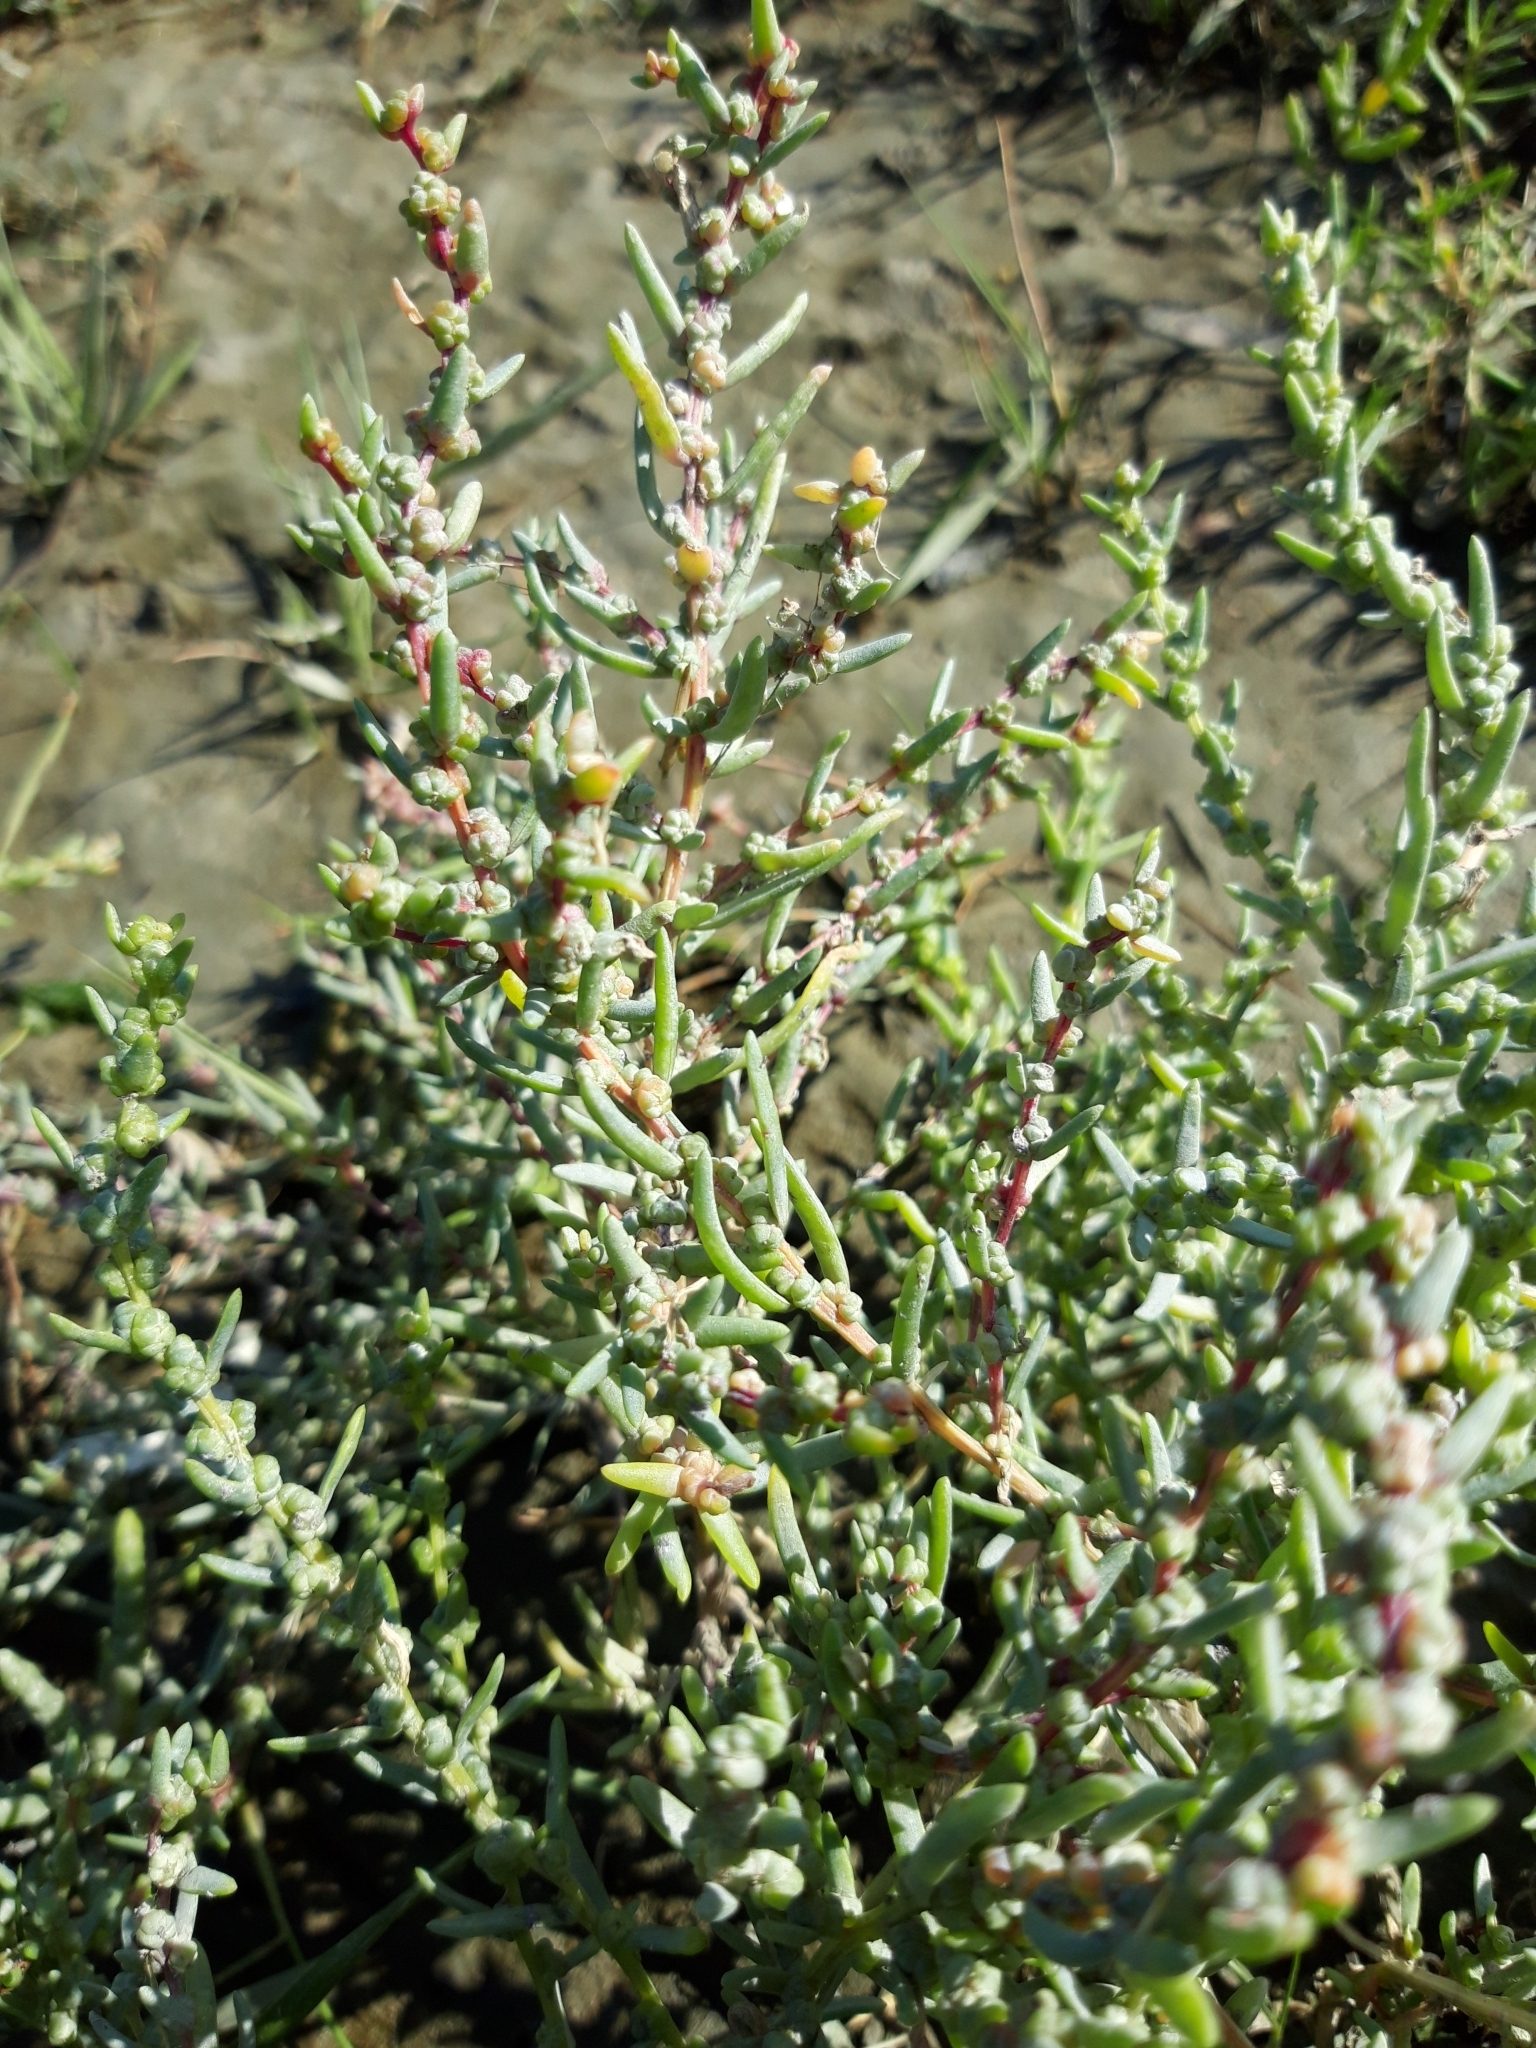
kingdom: Plantae
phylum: Tracheophyta
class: Magnoliopsida
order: Caryophyllales
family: Amaranthaceae
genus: Suaeda
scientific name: Suaeda maritima
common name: Annual sea-blite
